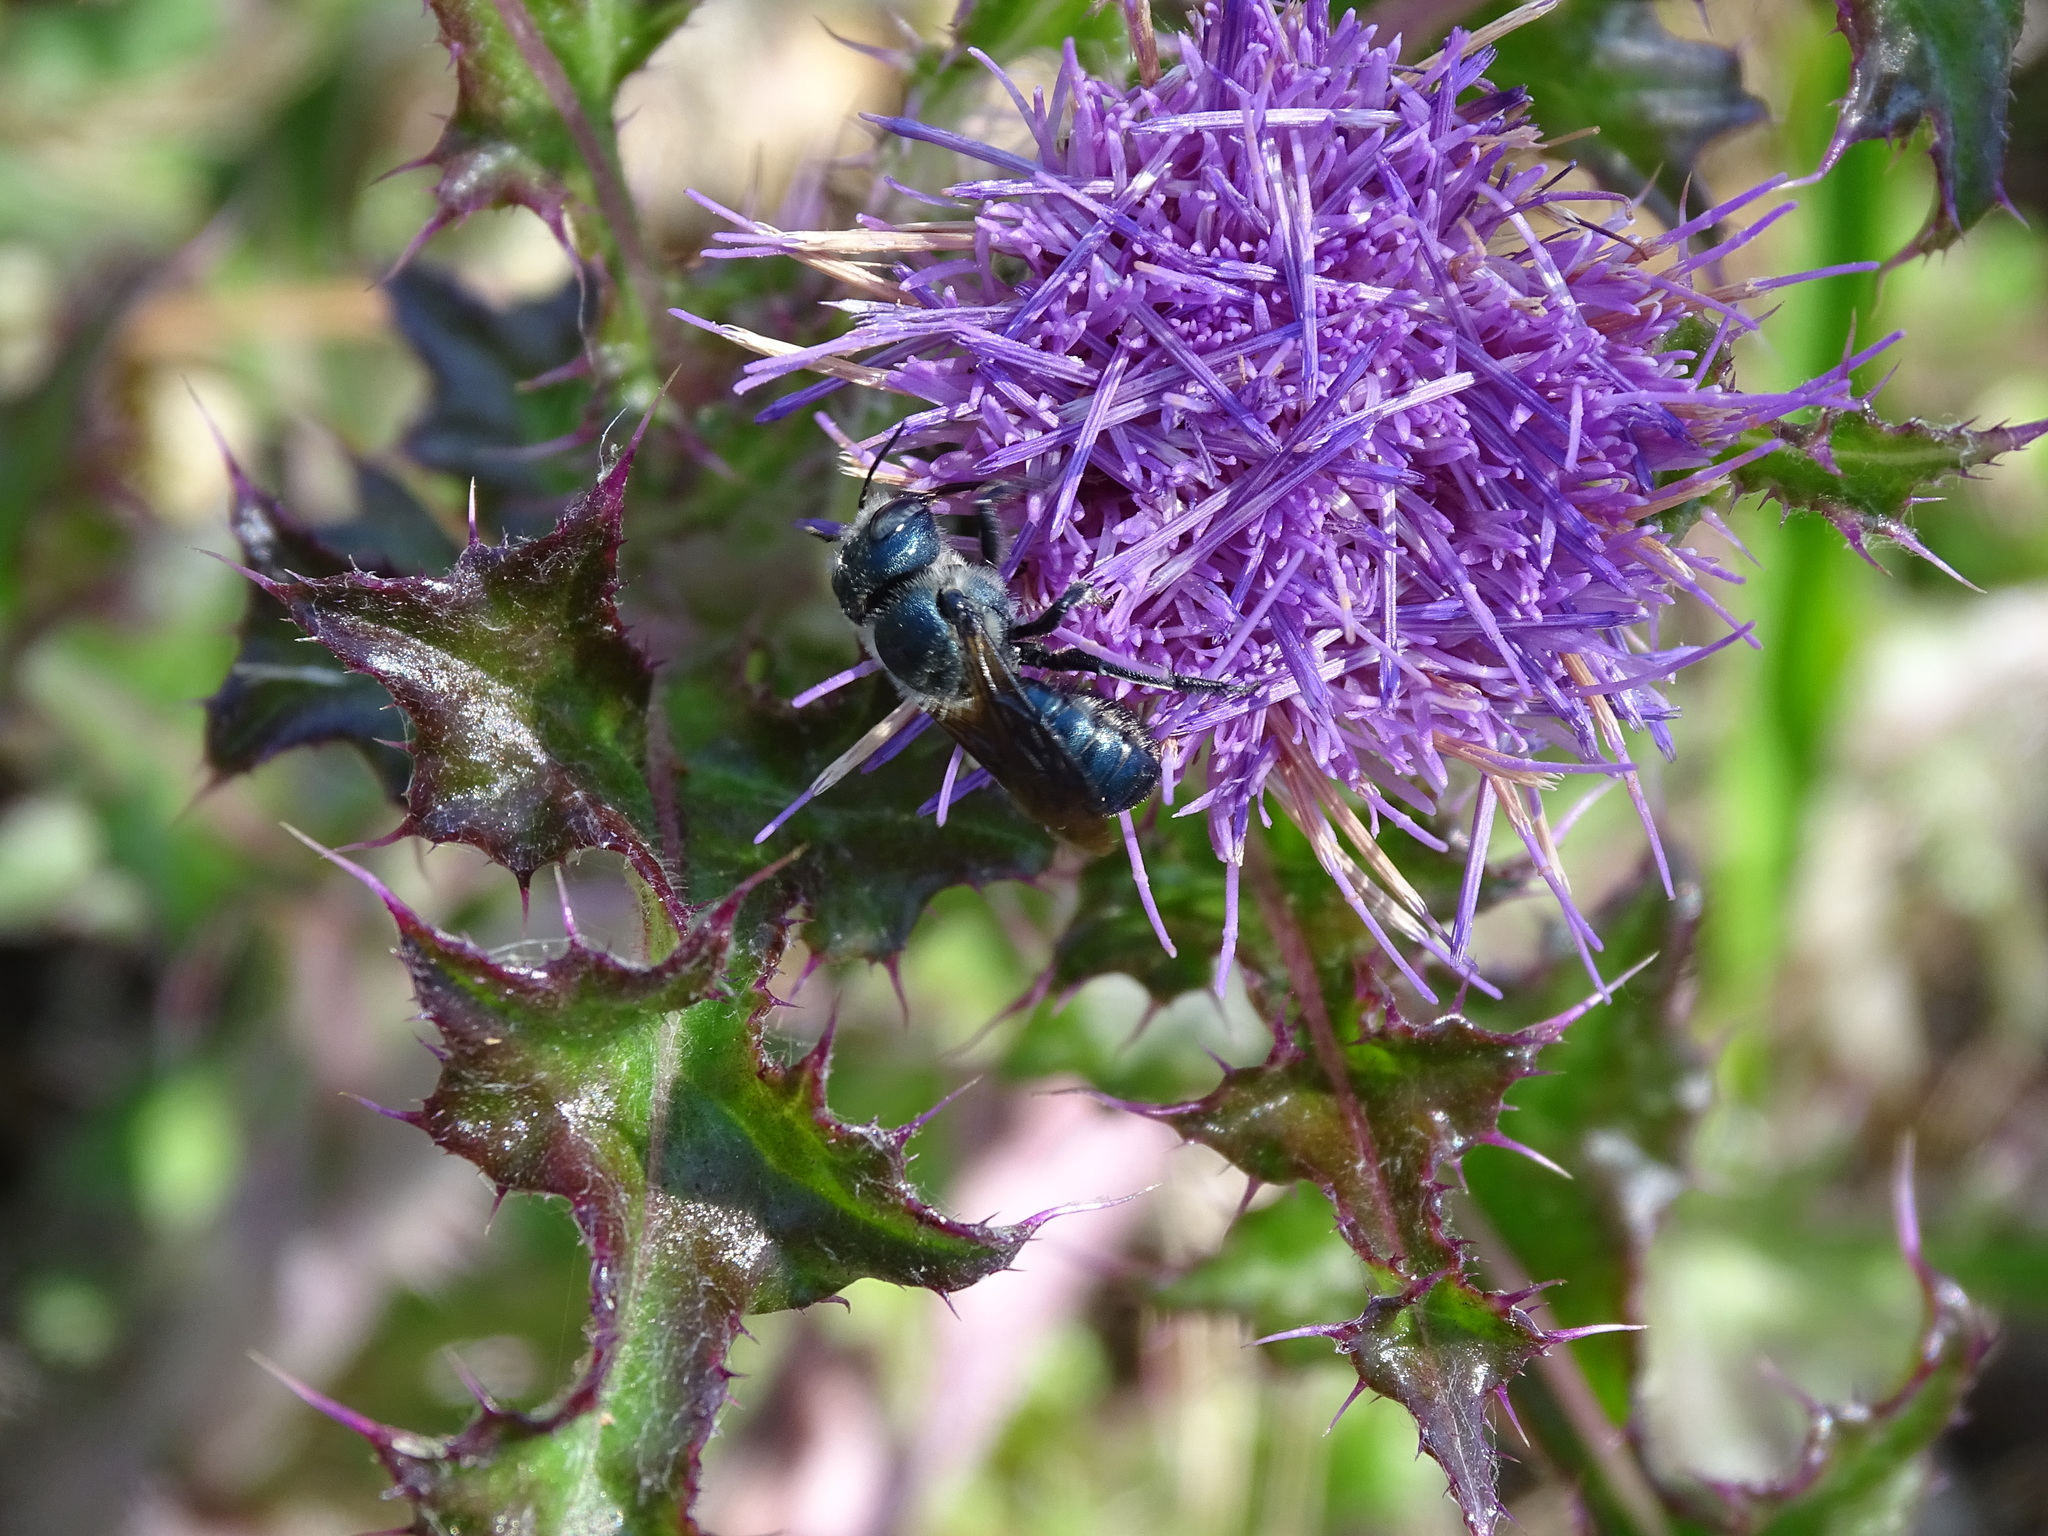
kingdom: Animalia
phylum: Arthropoda
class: Insecta
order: Hymenoptera
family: Megachilidae
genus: Osmia
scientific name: Osmia chalybea
